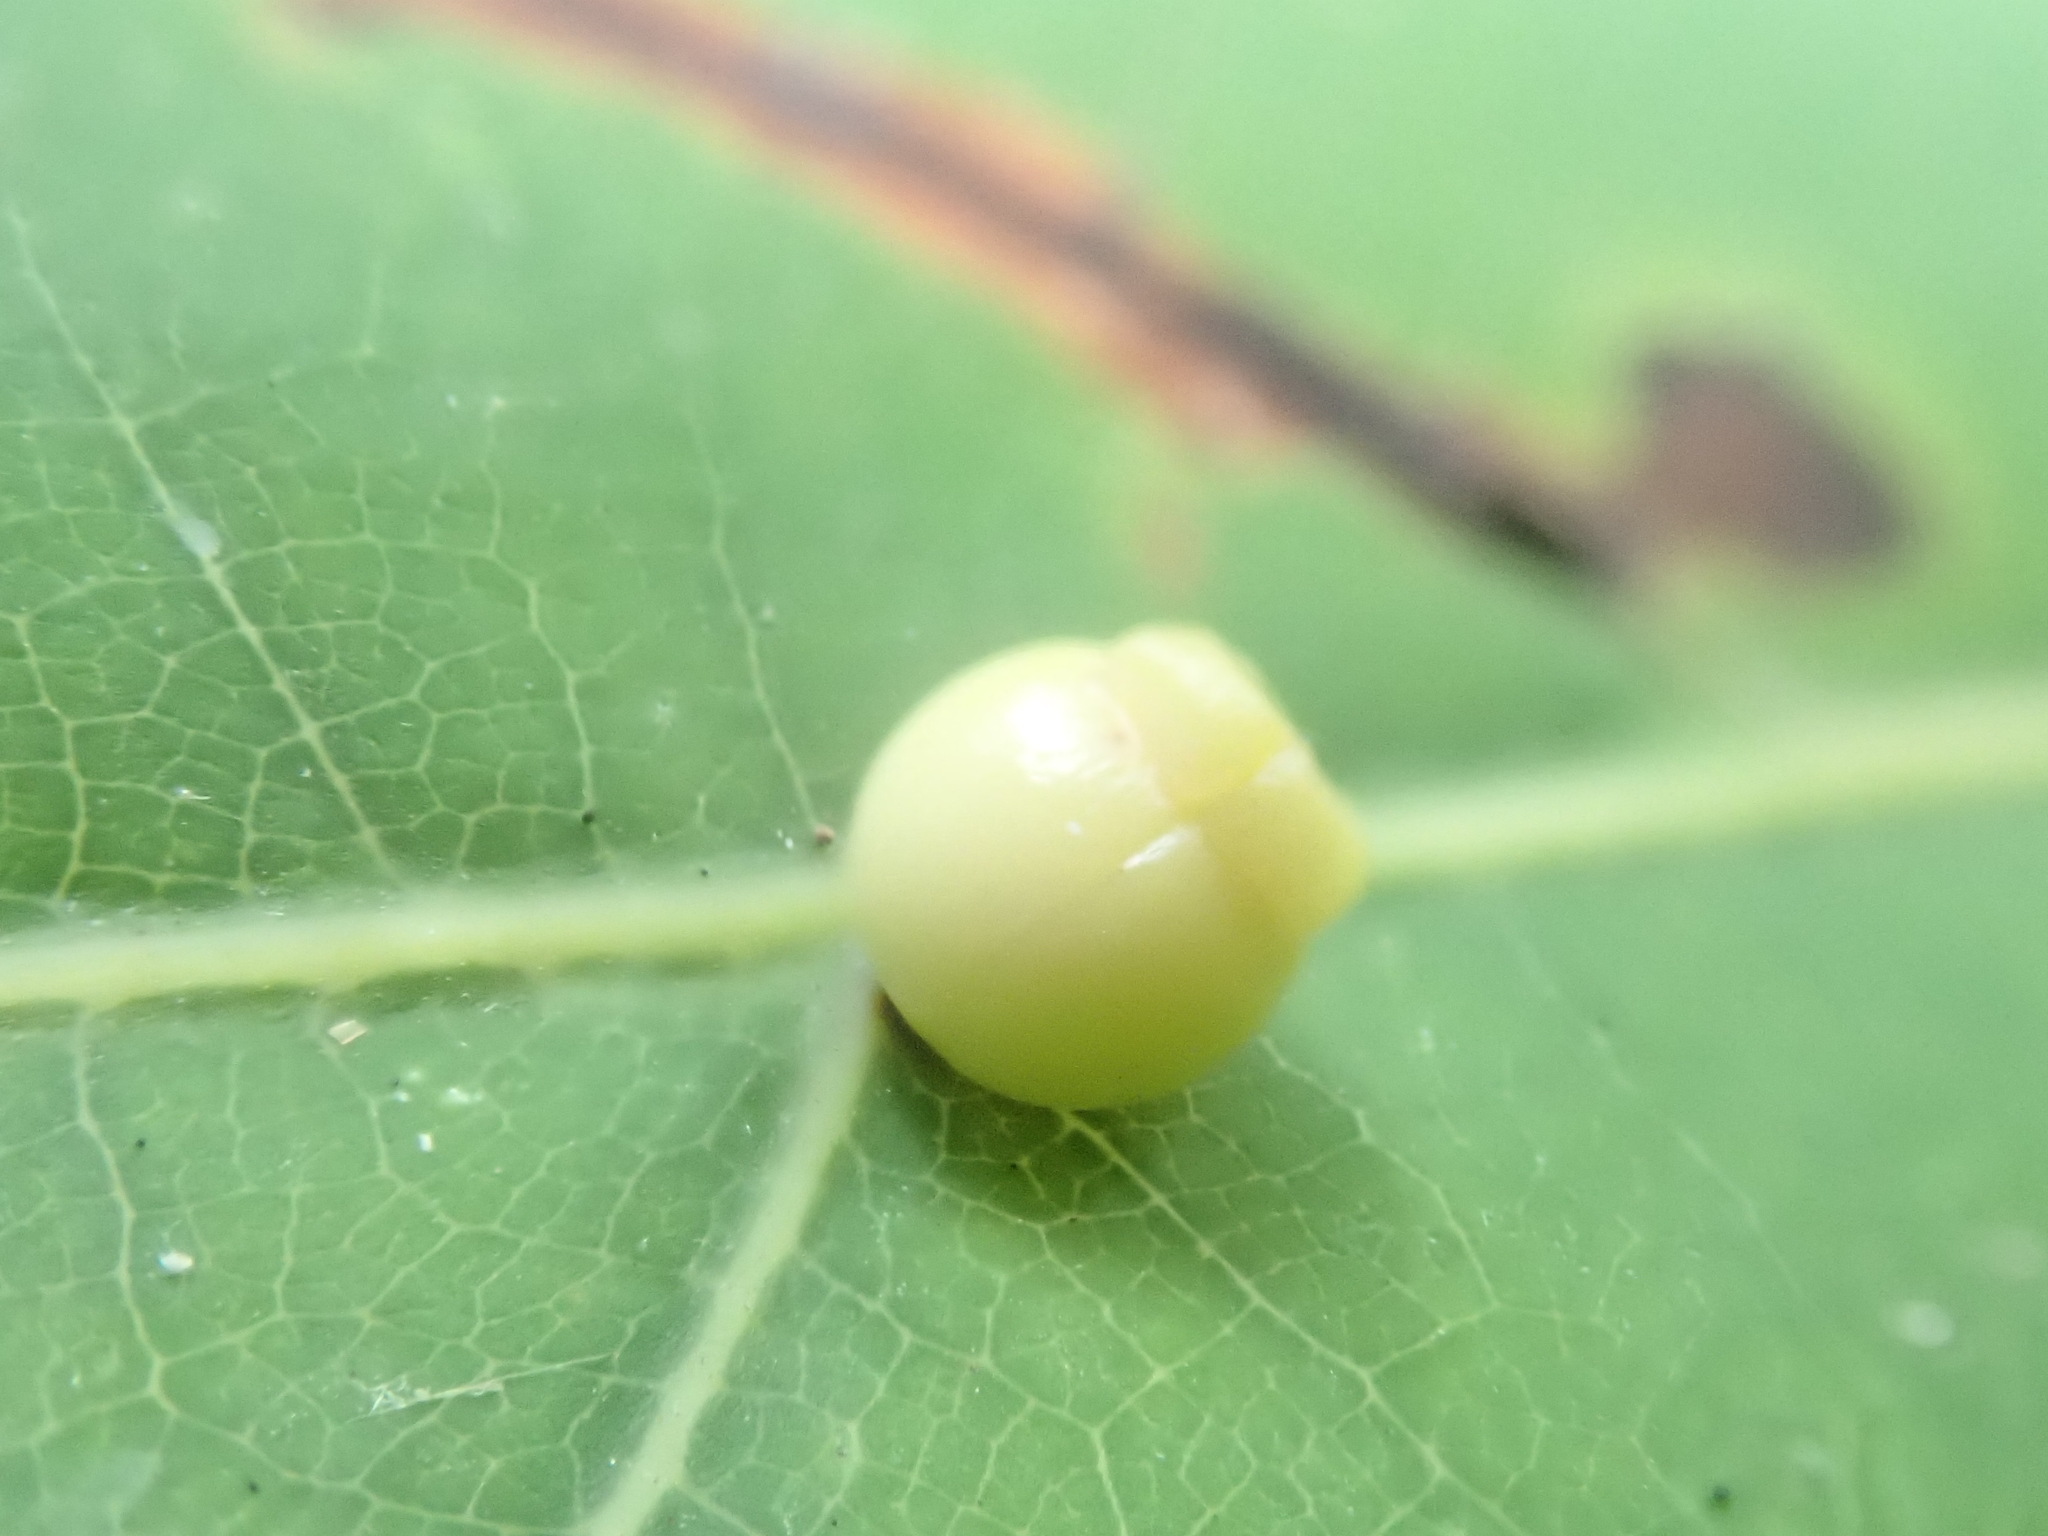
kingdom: Animalia
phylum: Arthropoda
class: Insecta
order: Hymenoptera
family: Cynipidae
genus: Kokkocynips
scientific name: Kokkocynips rileyi
